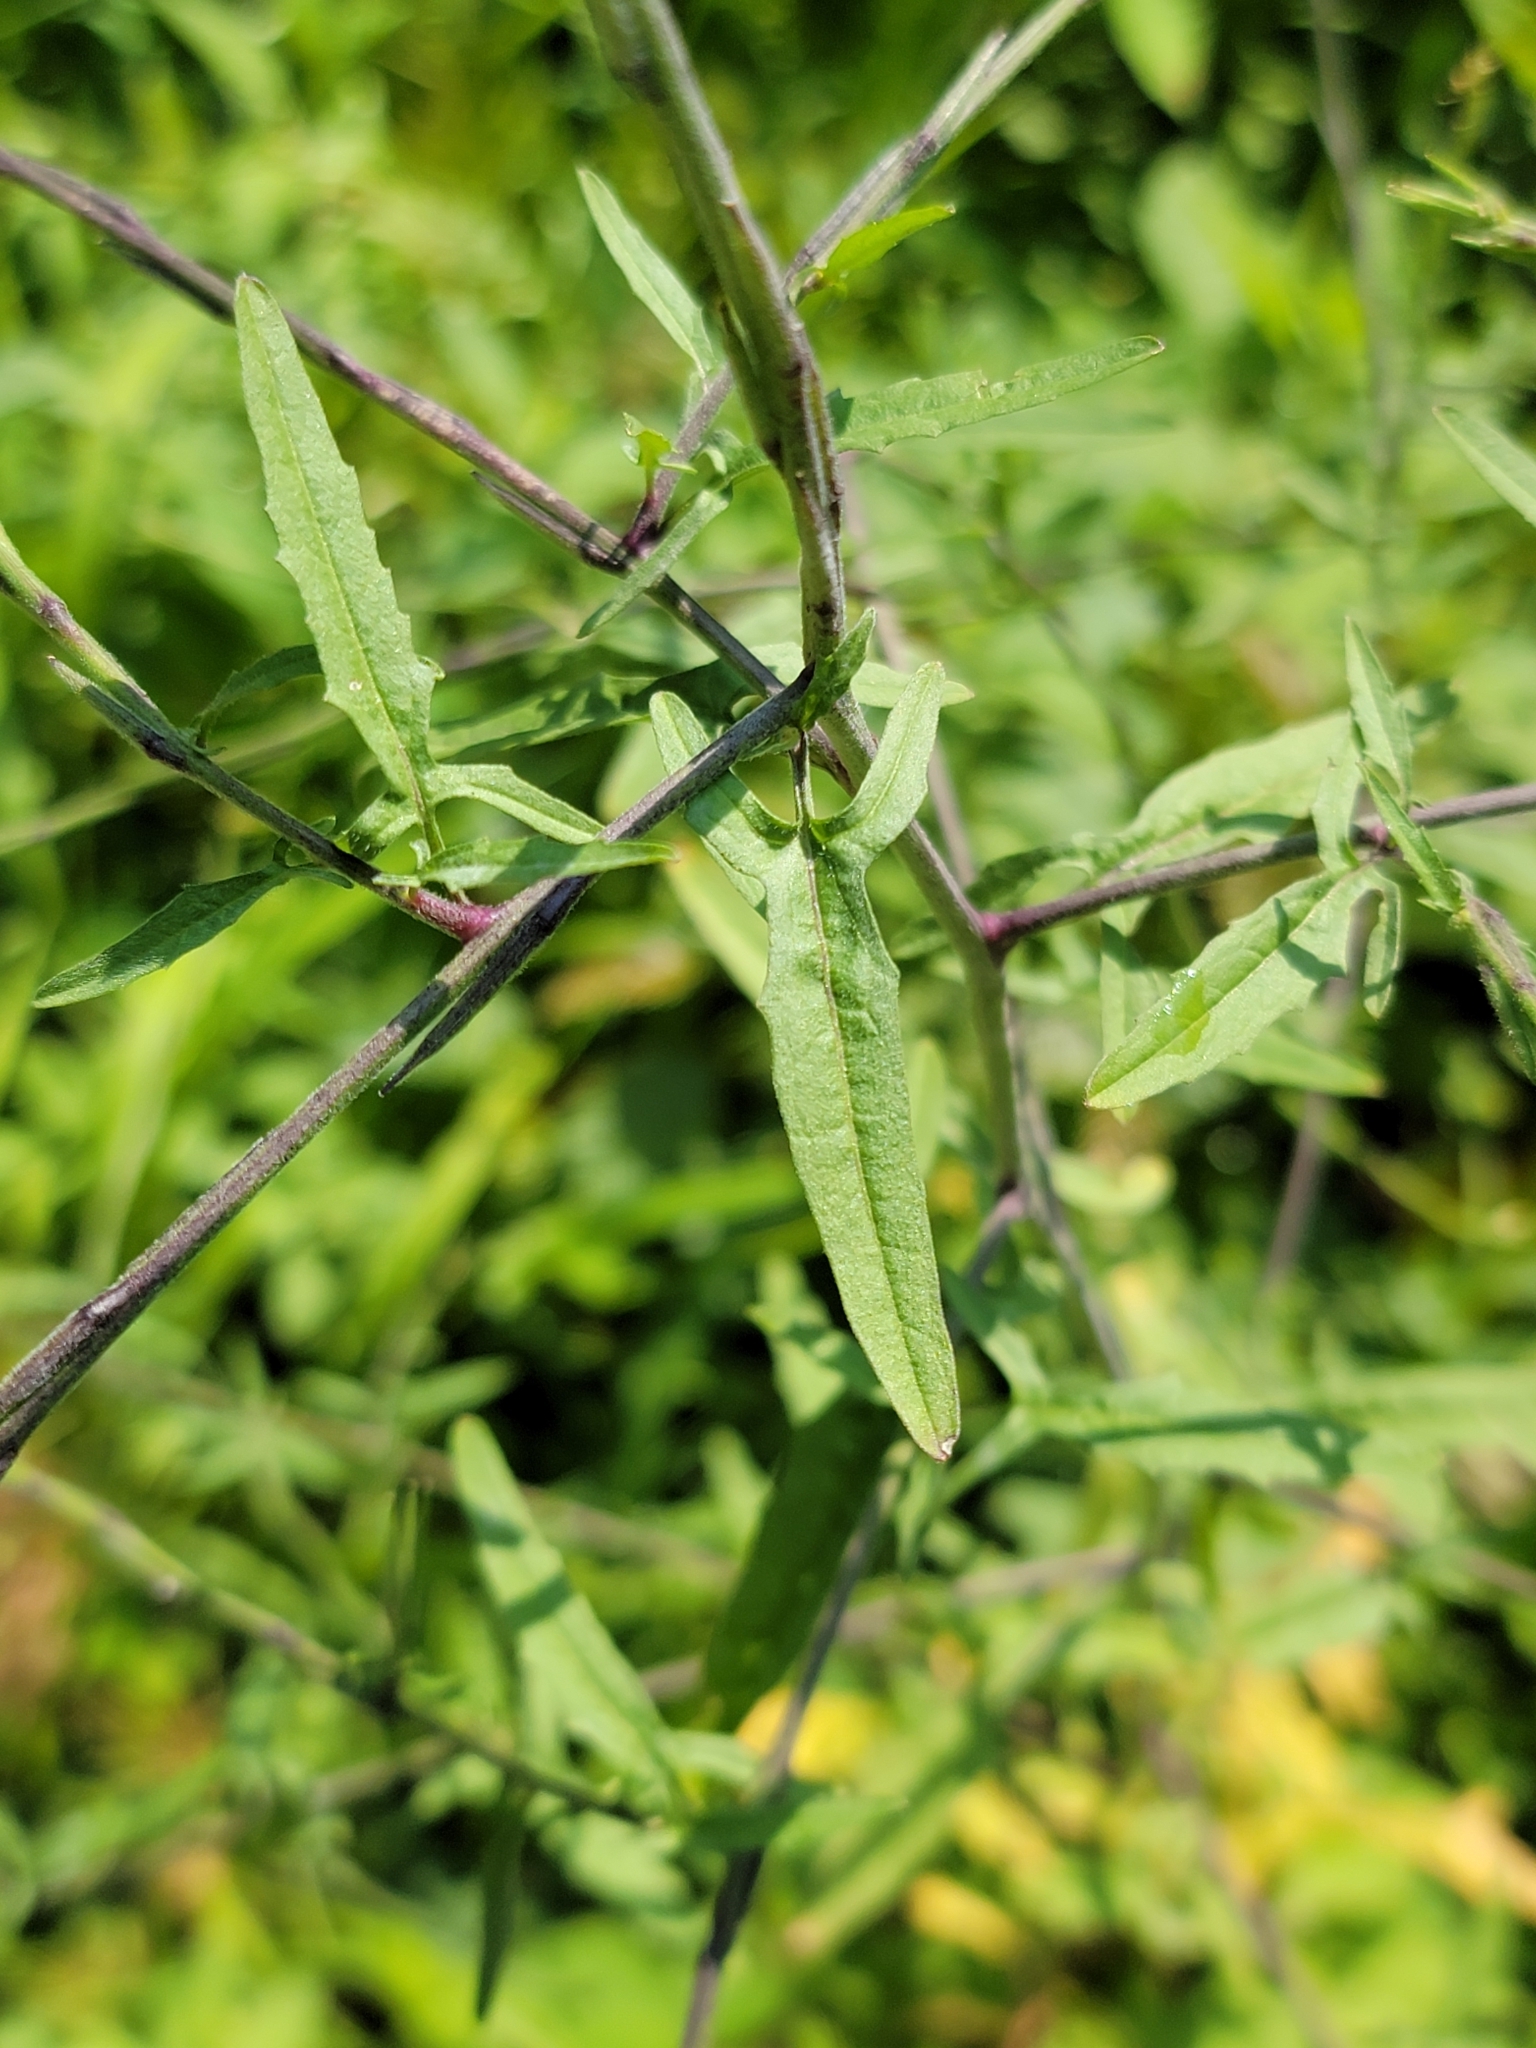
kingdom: Plantae
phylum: Tracheophyta
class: Magnoliopsida
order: Brassicales
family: Brassicaceae
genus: Sisymbrium
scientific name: Sisymbrium officinale
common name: Hedge mustard
